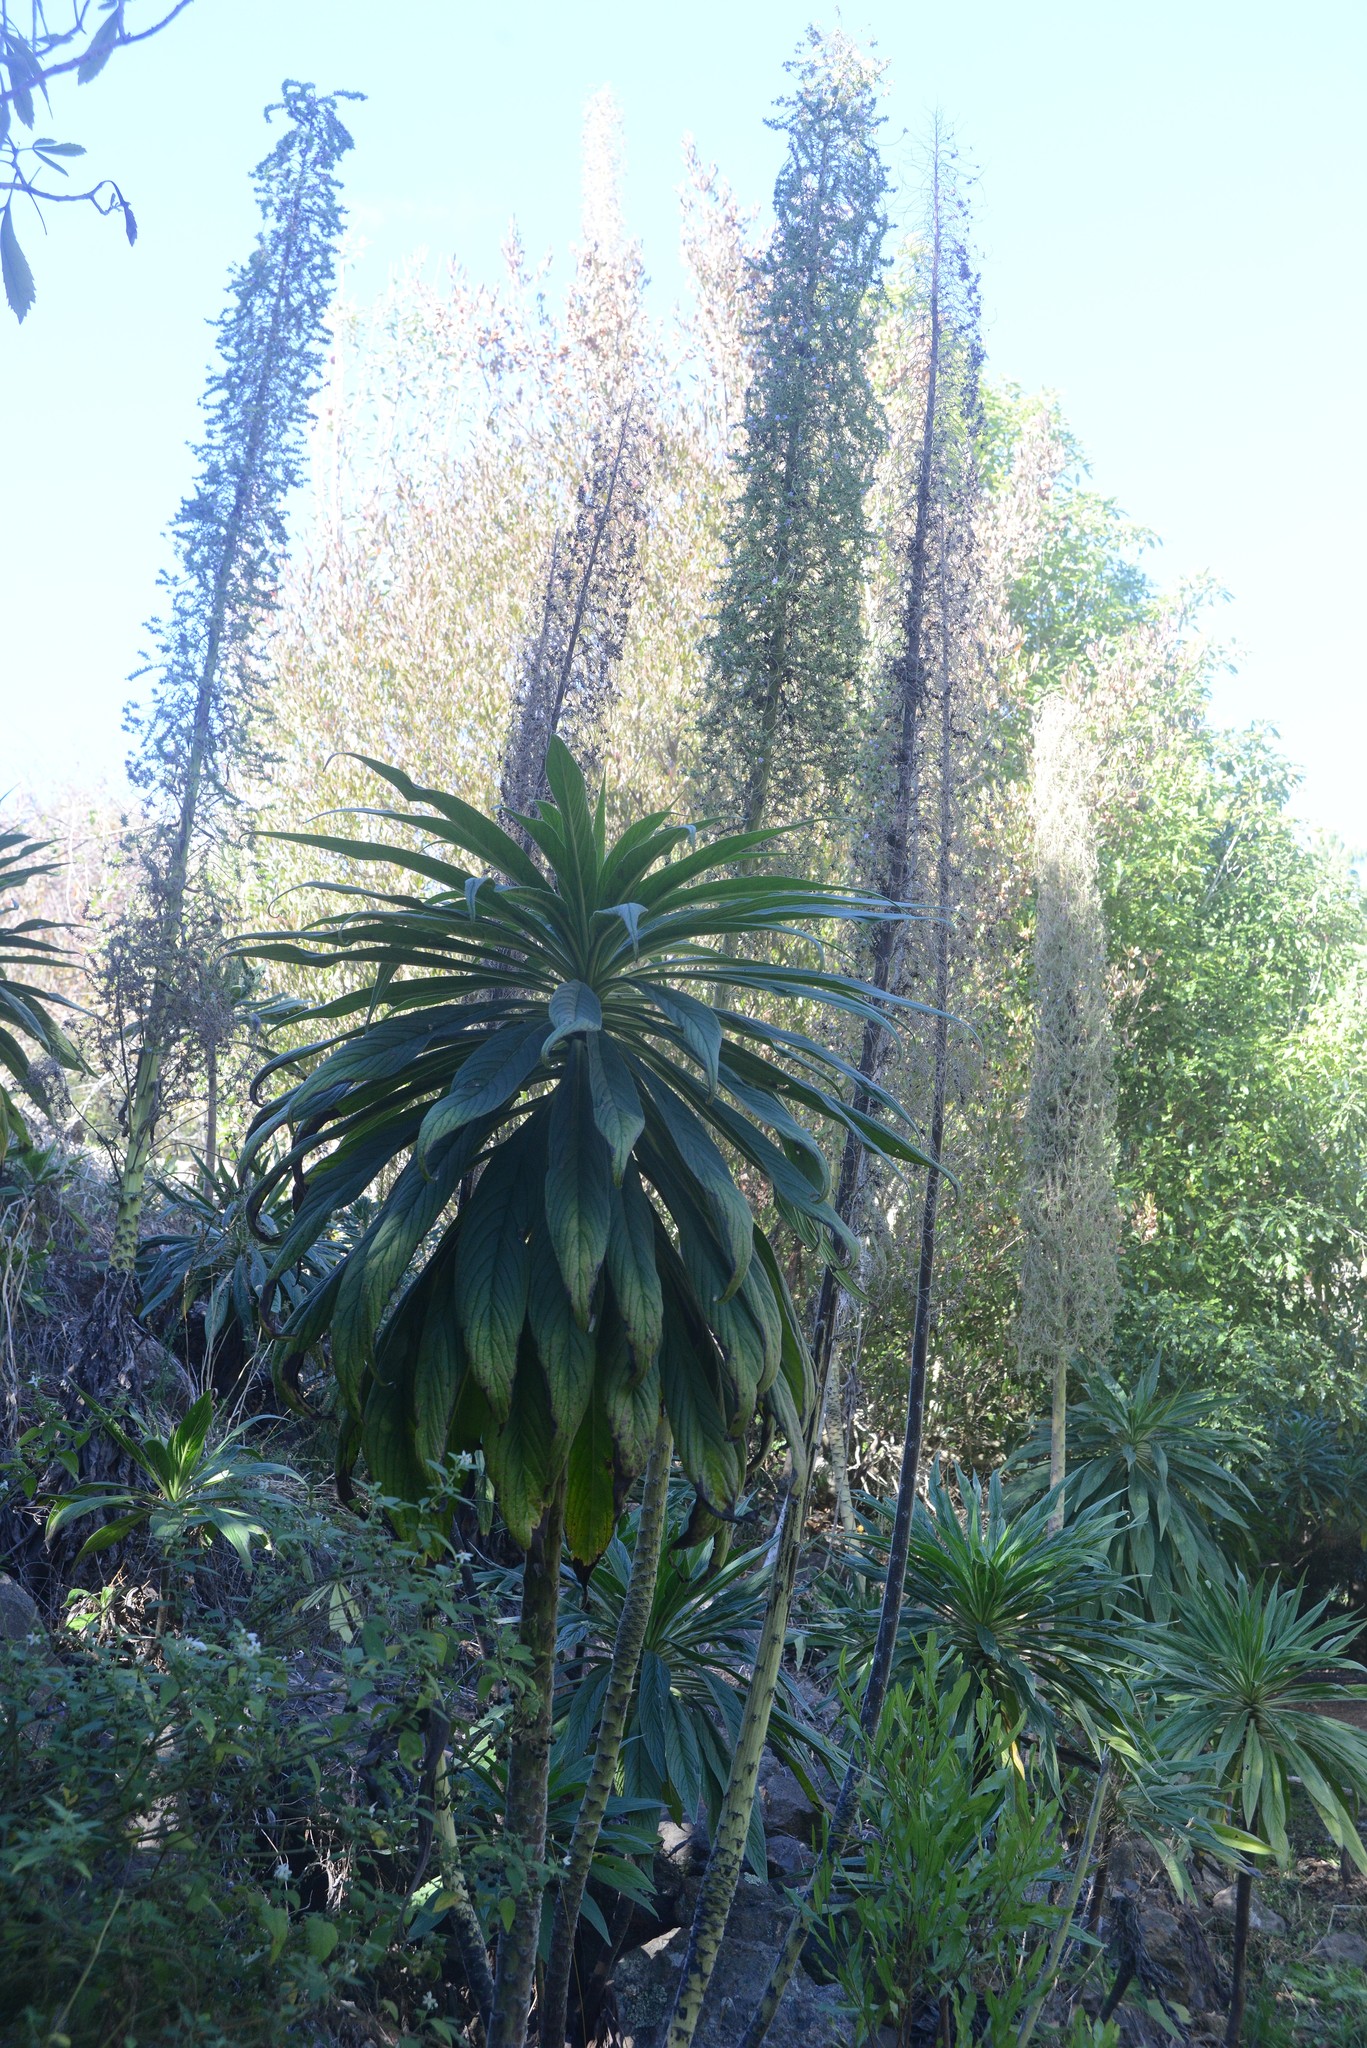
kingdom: Plantae
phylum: Tracheophyta
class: Magnoliopsida
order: Boraginales
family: Boraginaceae
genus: Echium
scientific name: Echium pininana
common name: Giant viper's-bugloss
